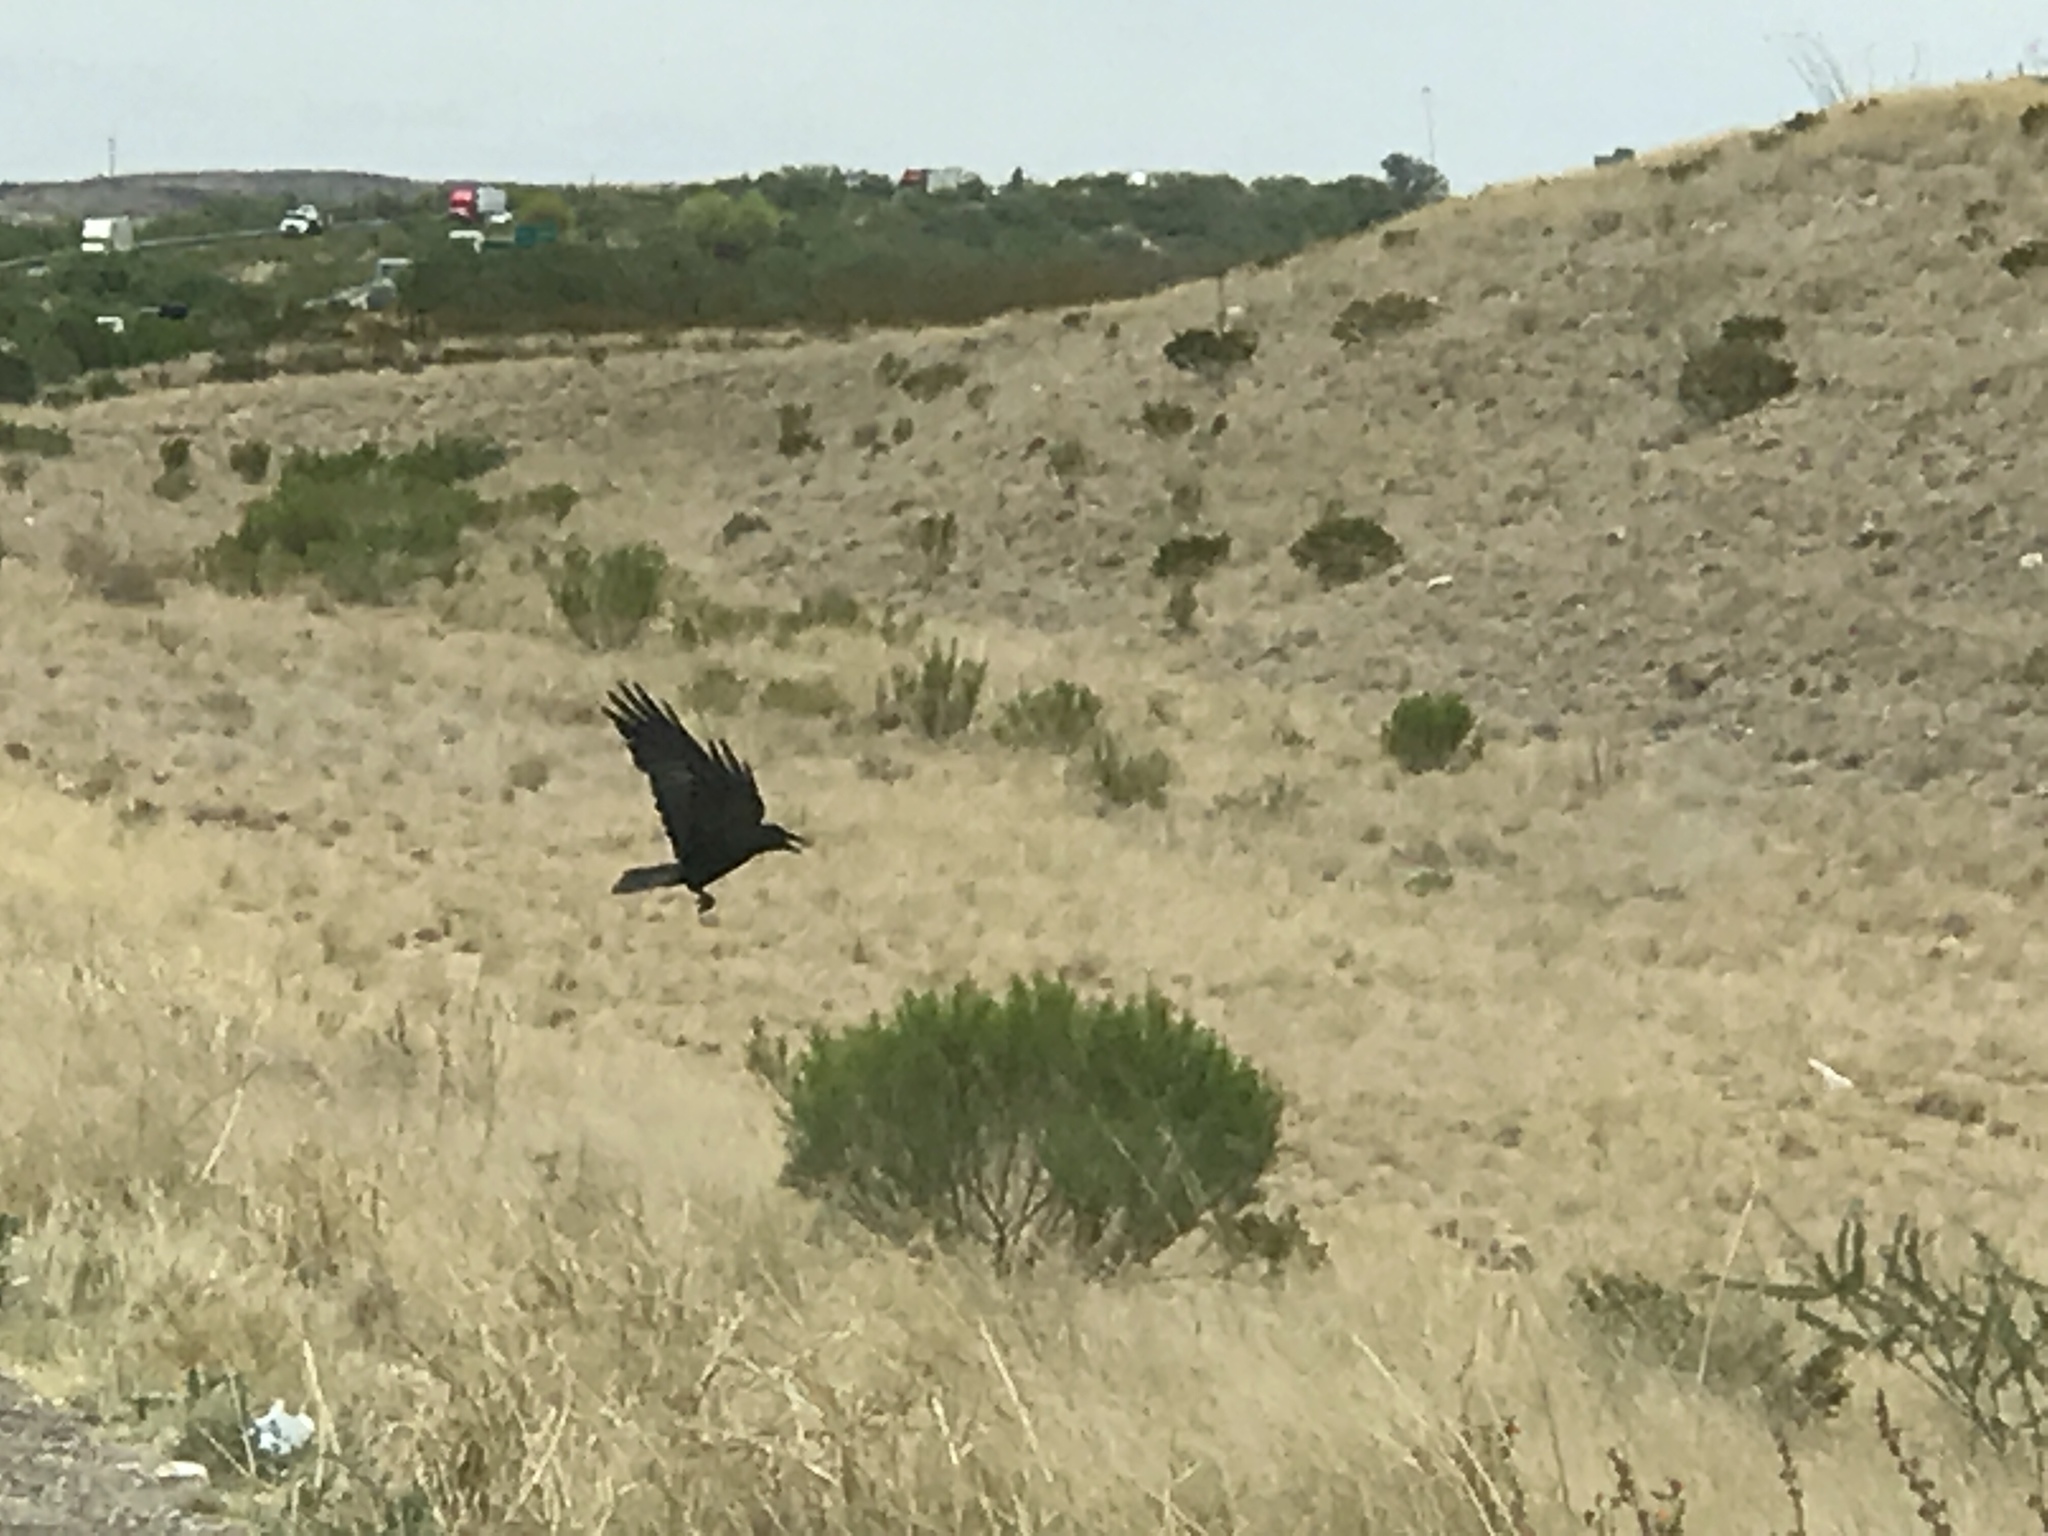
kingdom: Animalia
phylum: Chordata
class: Aves
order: Passeriformes
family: Corvidae
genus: Corvus
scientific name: Corvus corax
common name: Common raven
